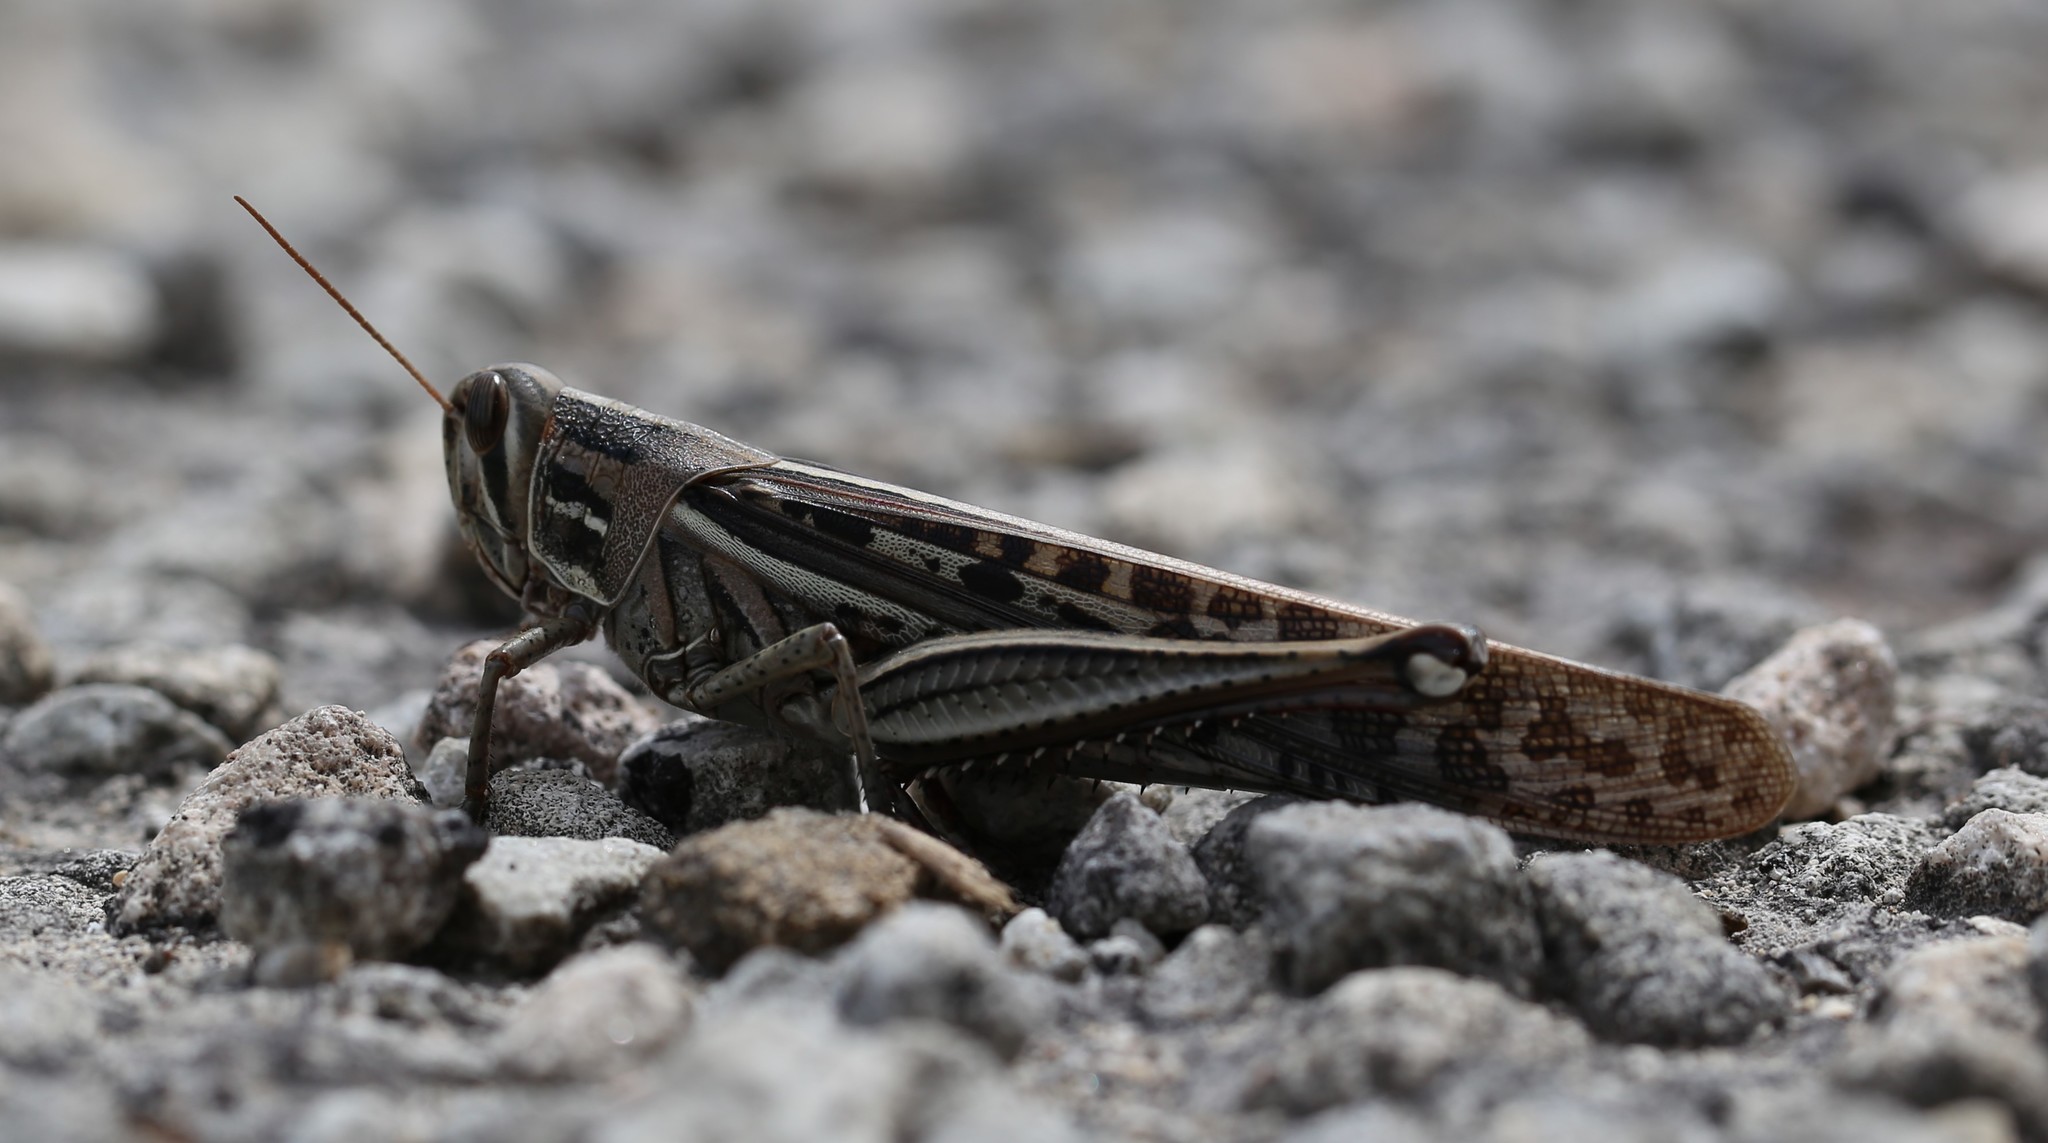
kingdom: Animalia
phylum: Arthropoda
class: Insecta
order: Orthoptera
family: Acrididae
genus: Schistocerca
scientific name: Schistocerca americana
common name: American bird locust
